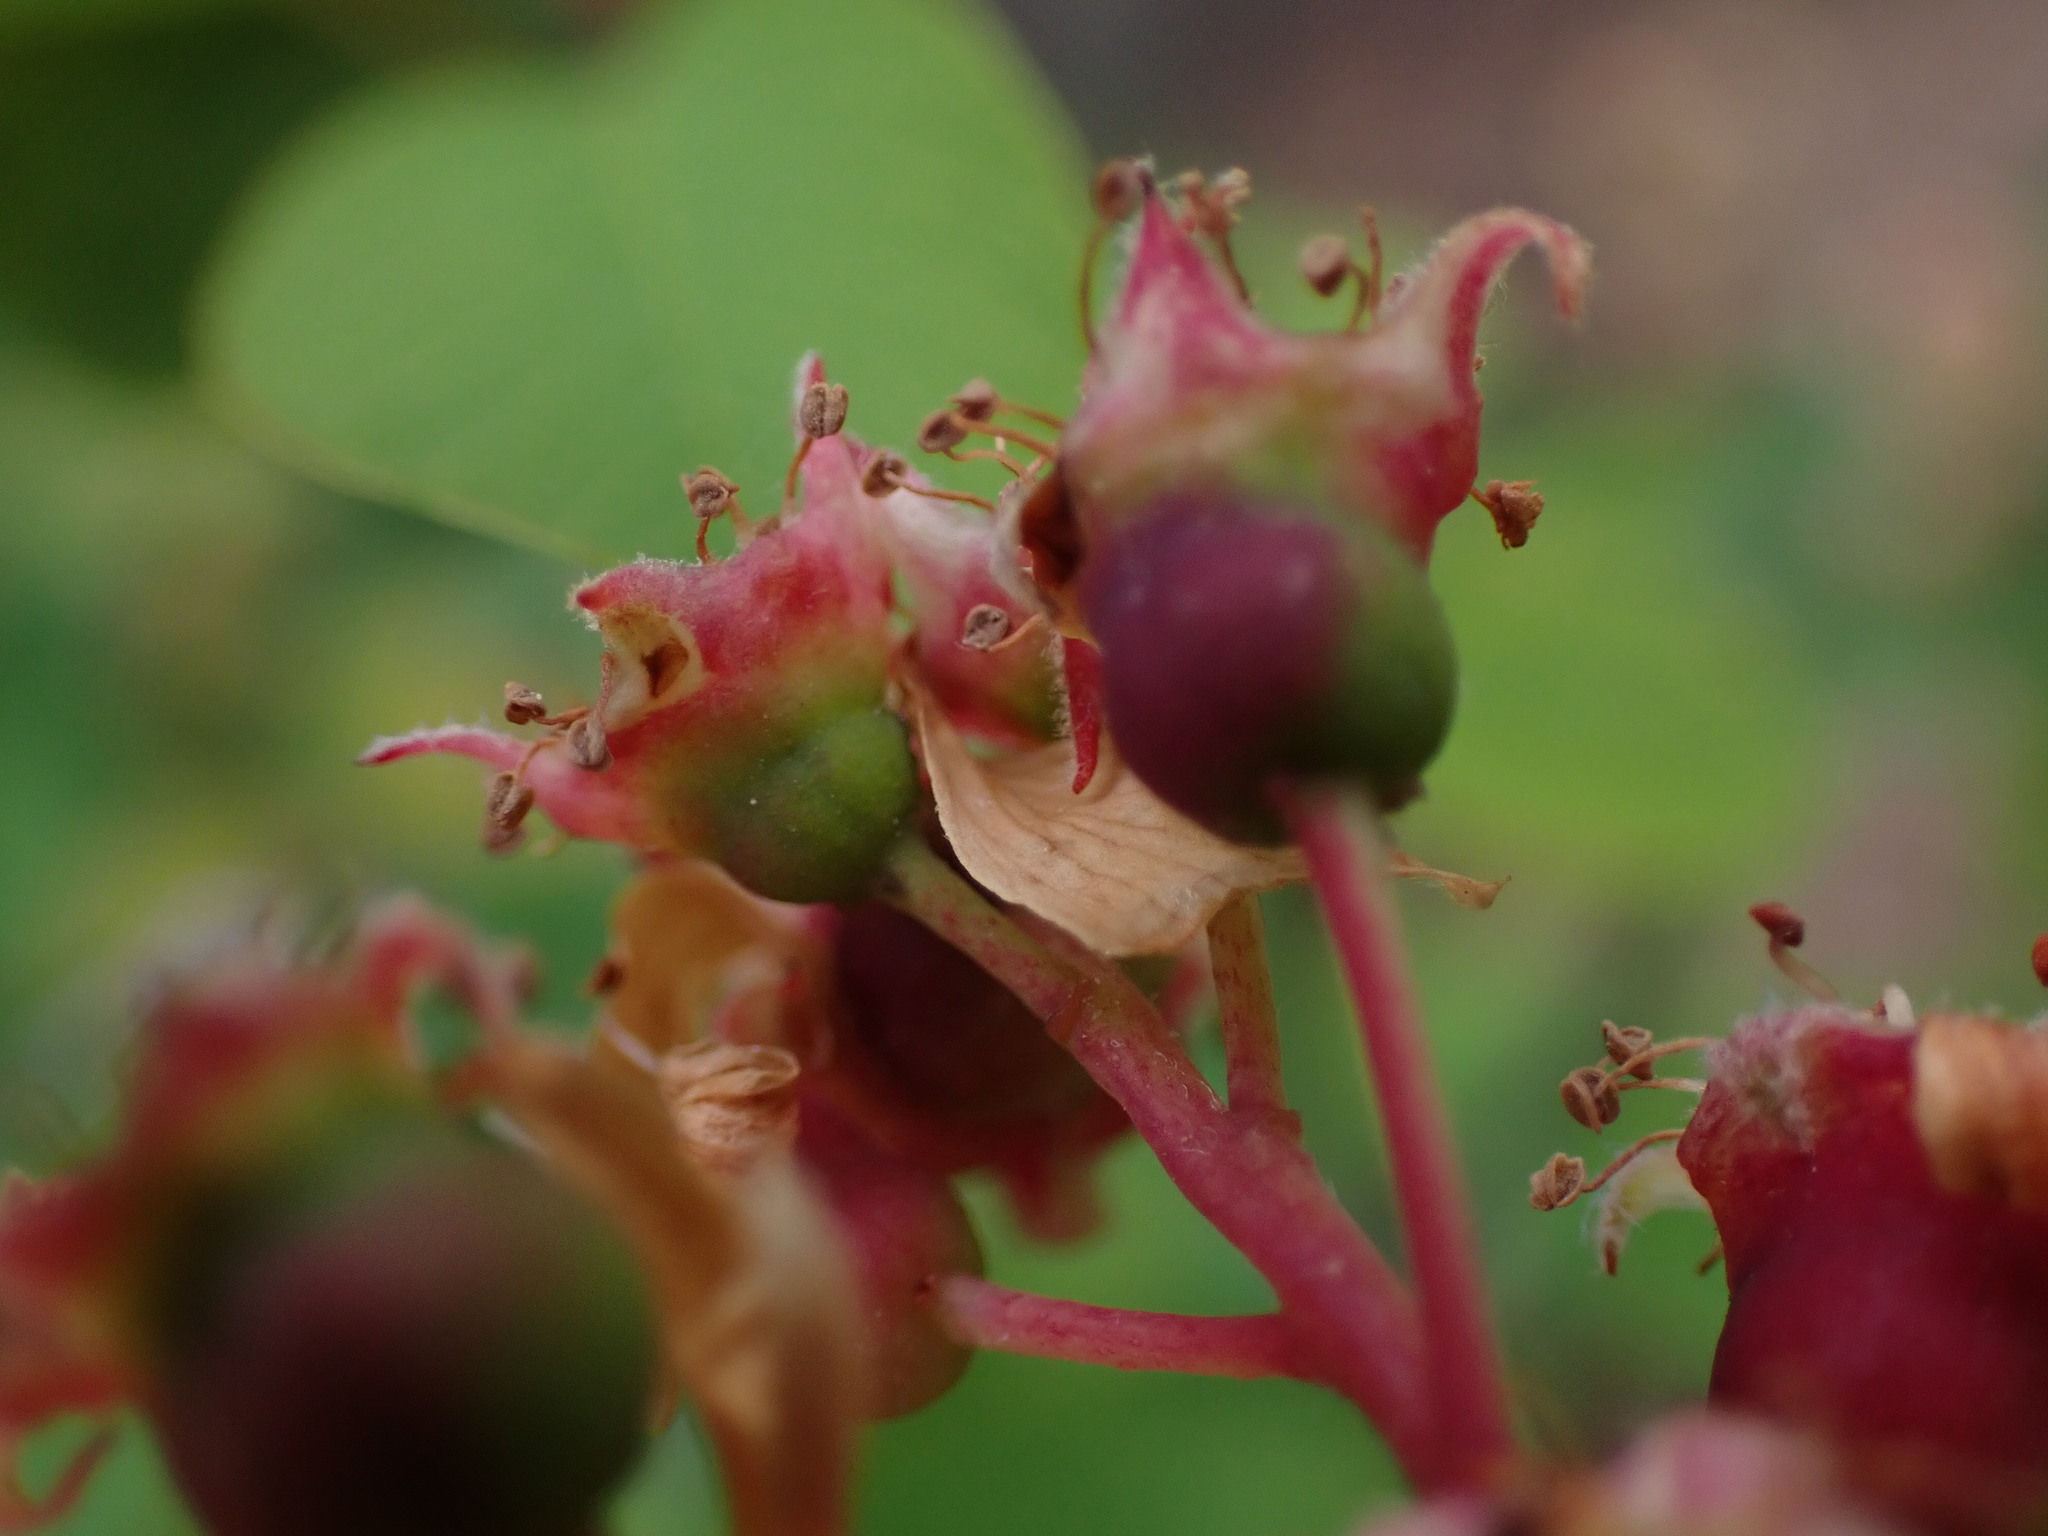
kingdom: Plantae
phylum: Tracheophyta
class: Magnoliopsida
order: Rosales
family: Rosaceae
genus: Amelanchier
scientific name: Amelanchier alnifolia
